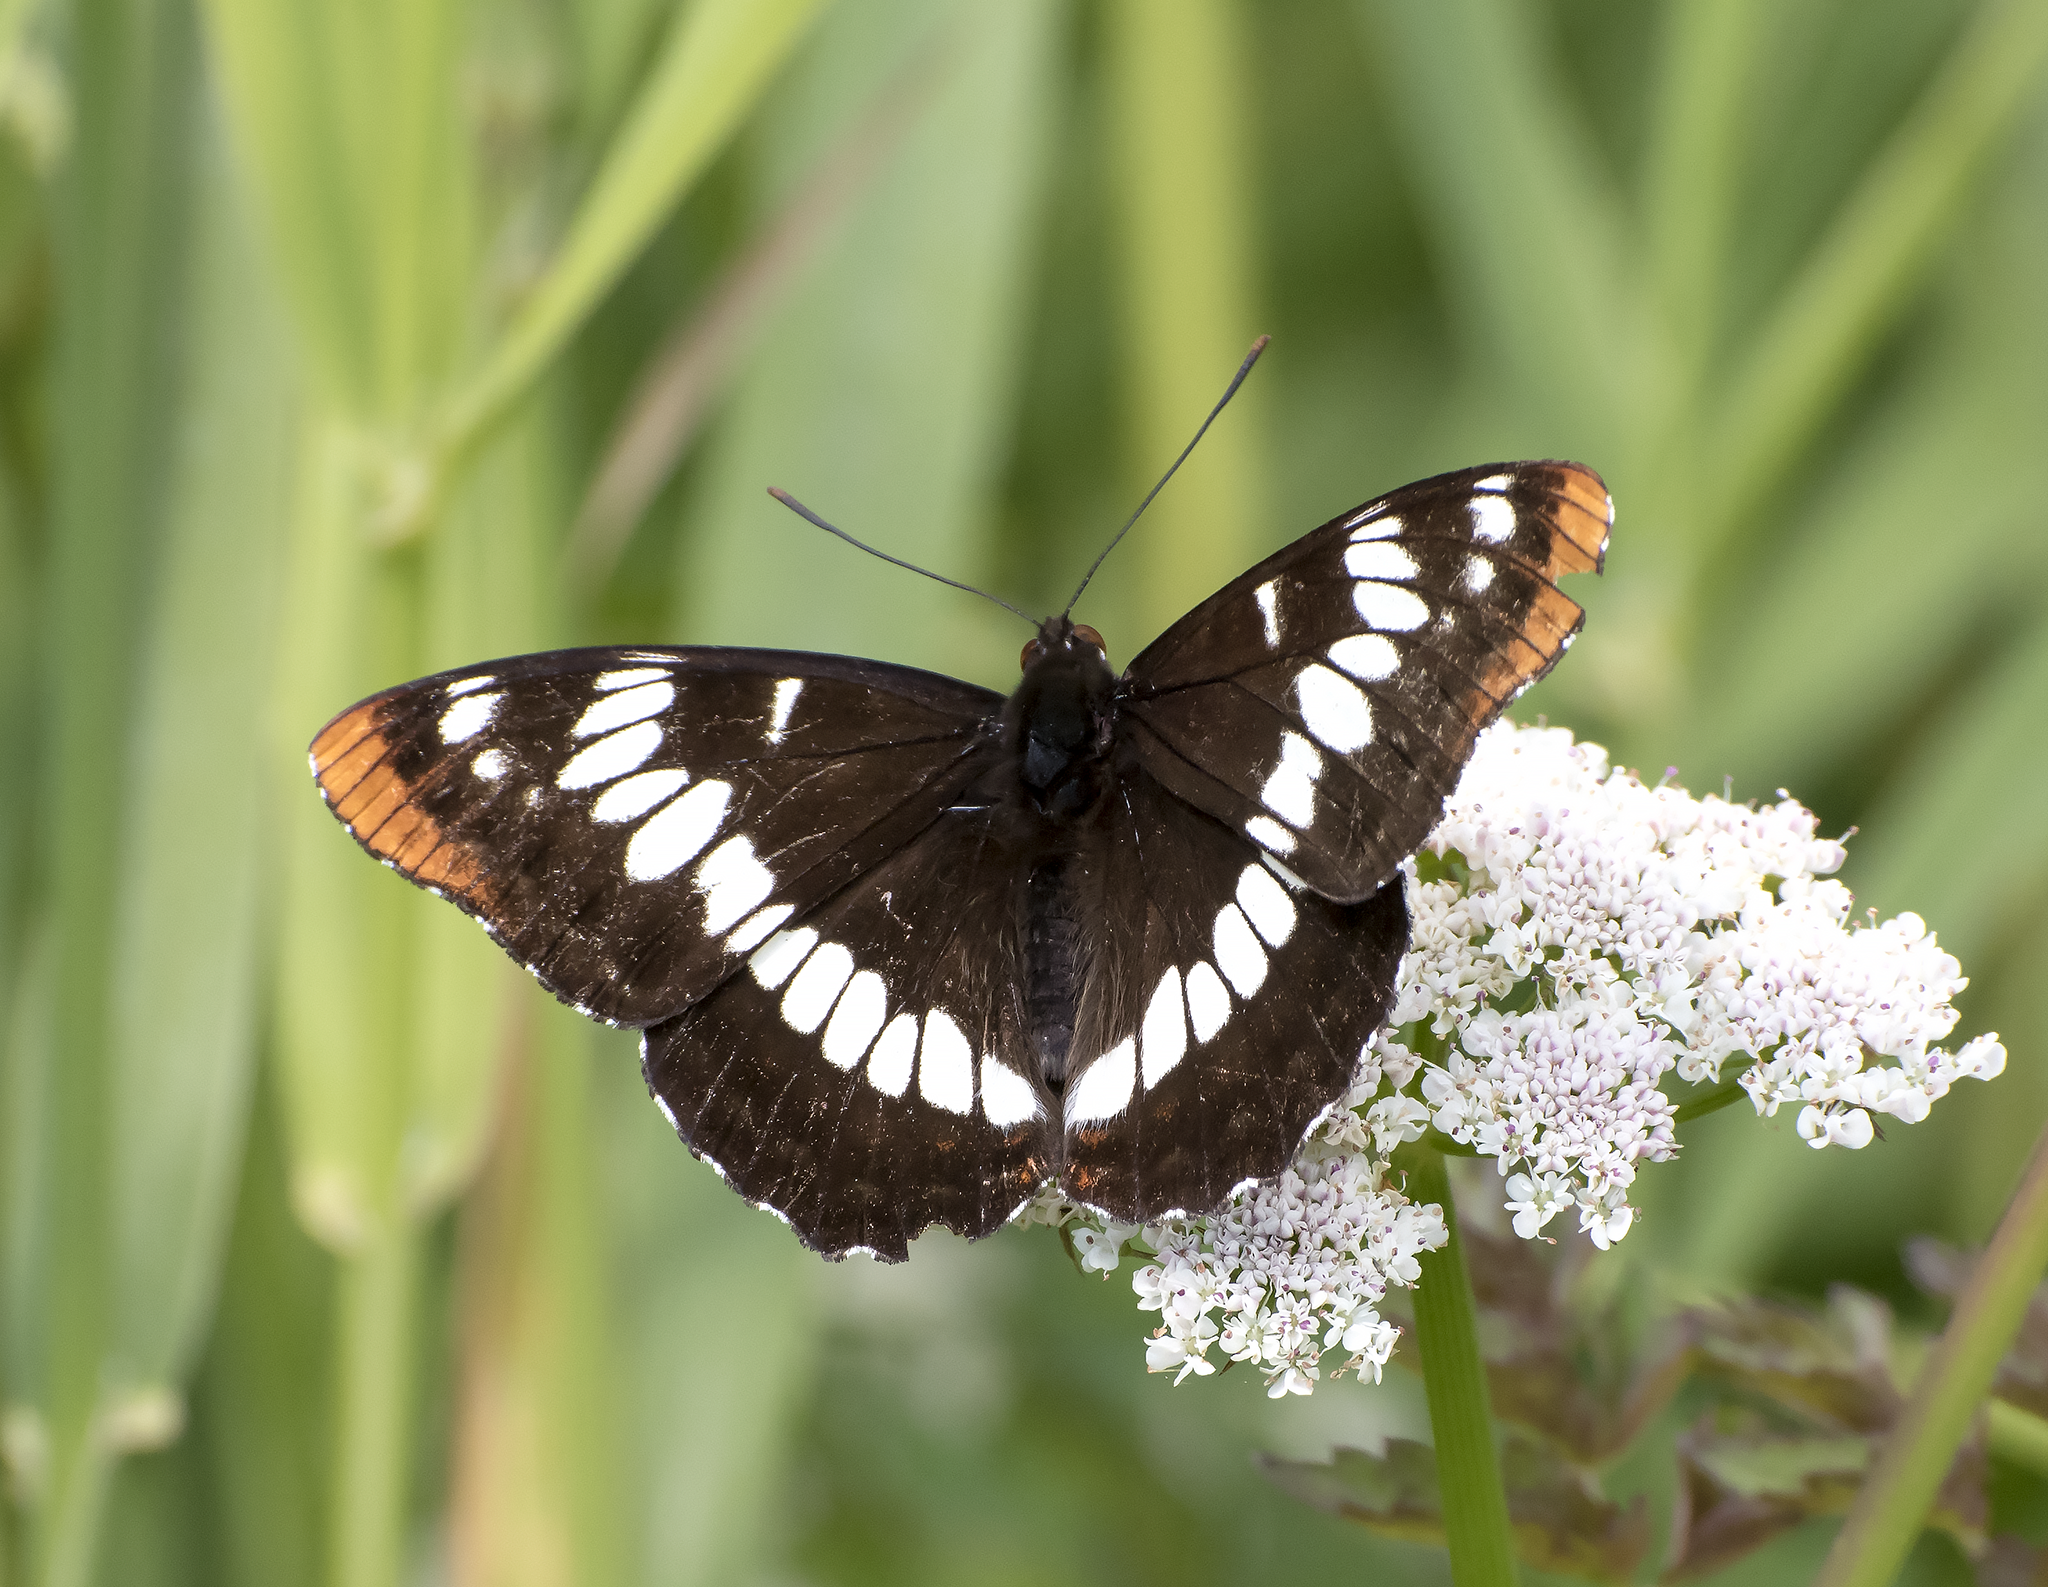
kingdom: Animalia
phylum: Arthropoda
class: Insecta
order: Lepidoptera
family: Nymphalidae
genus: Limenitis
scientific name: Limenitis lorquini
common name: Lorquin's admiral
